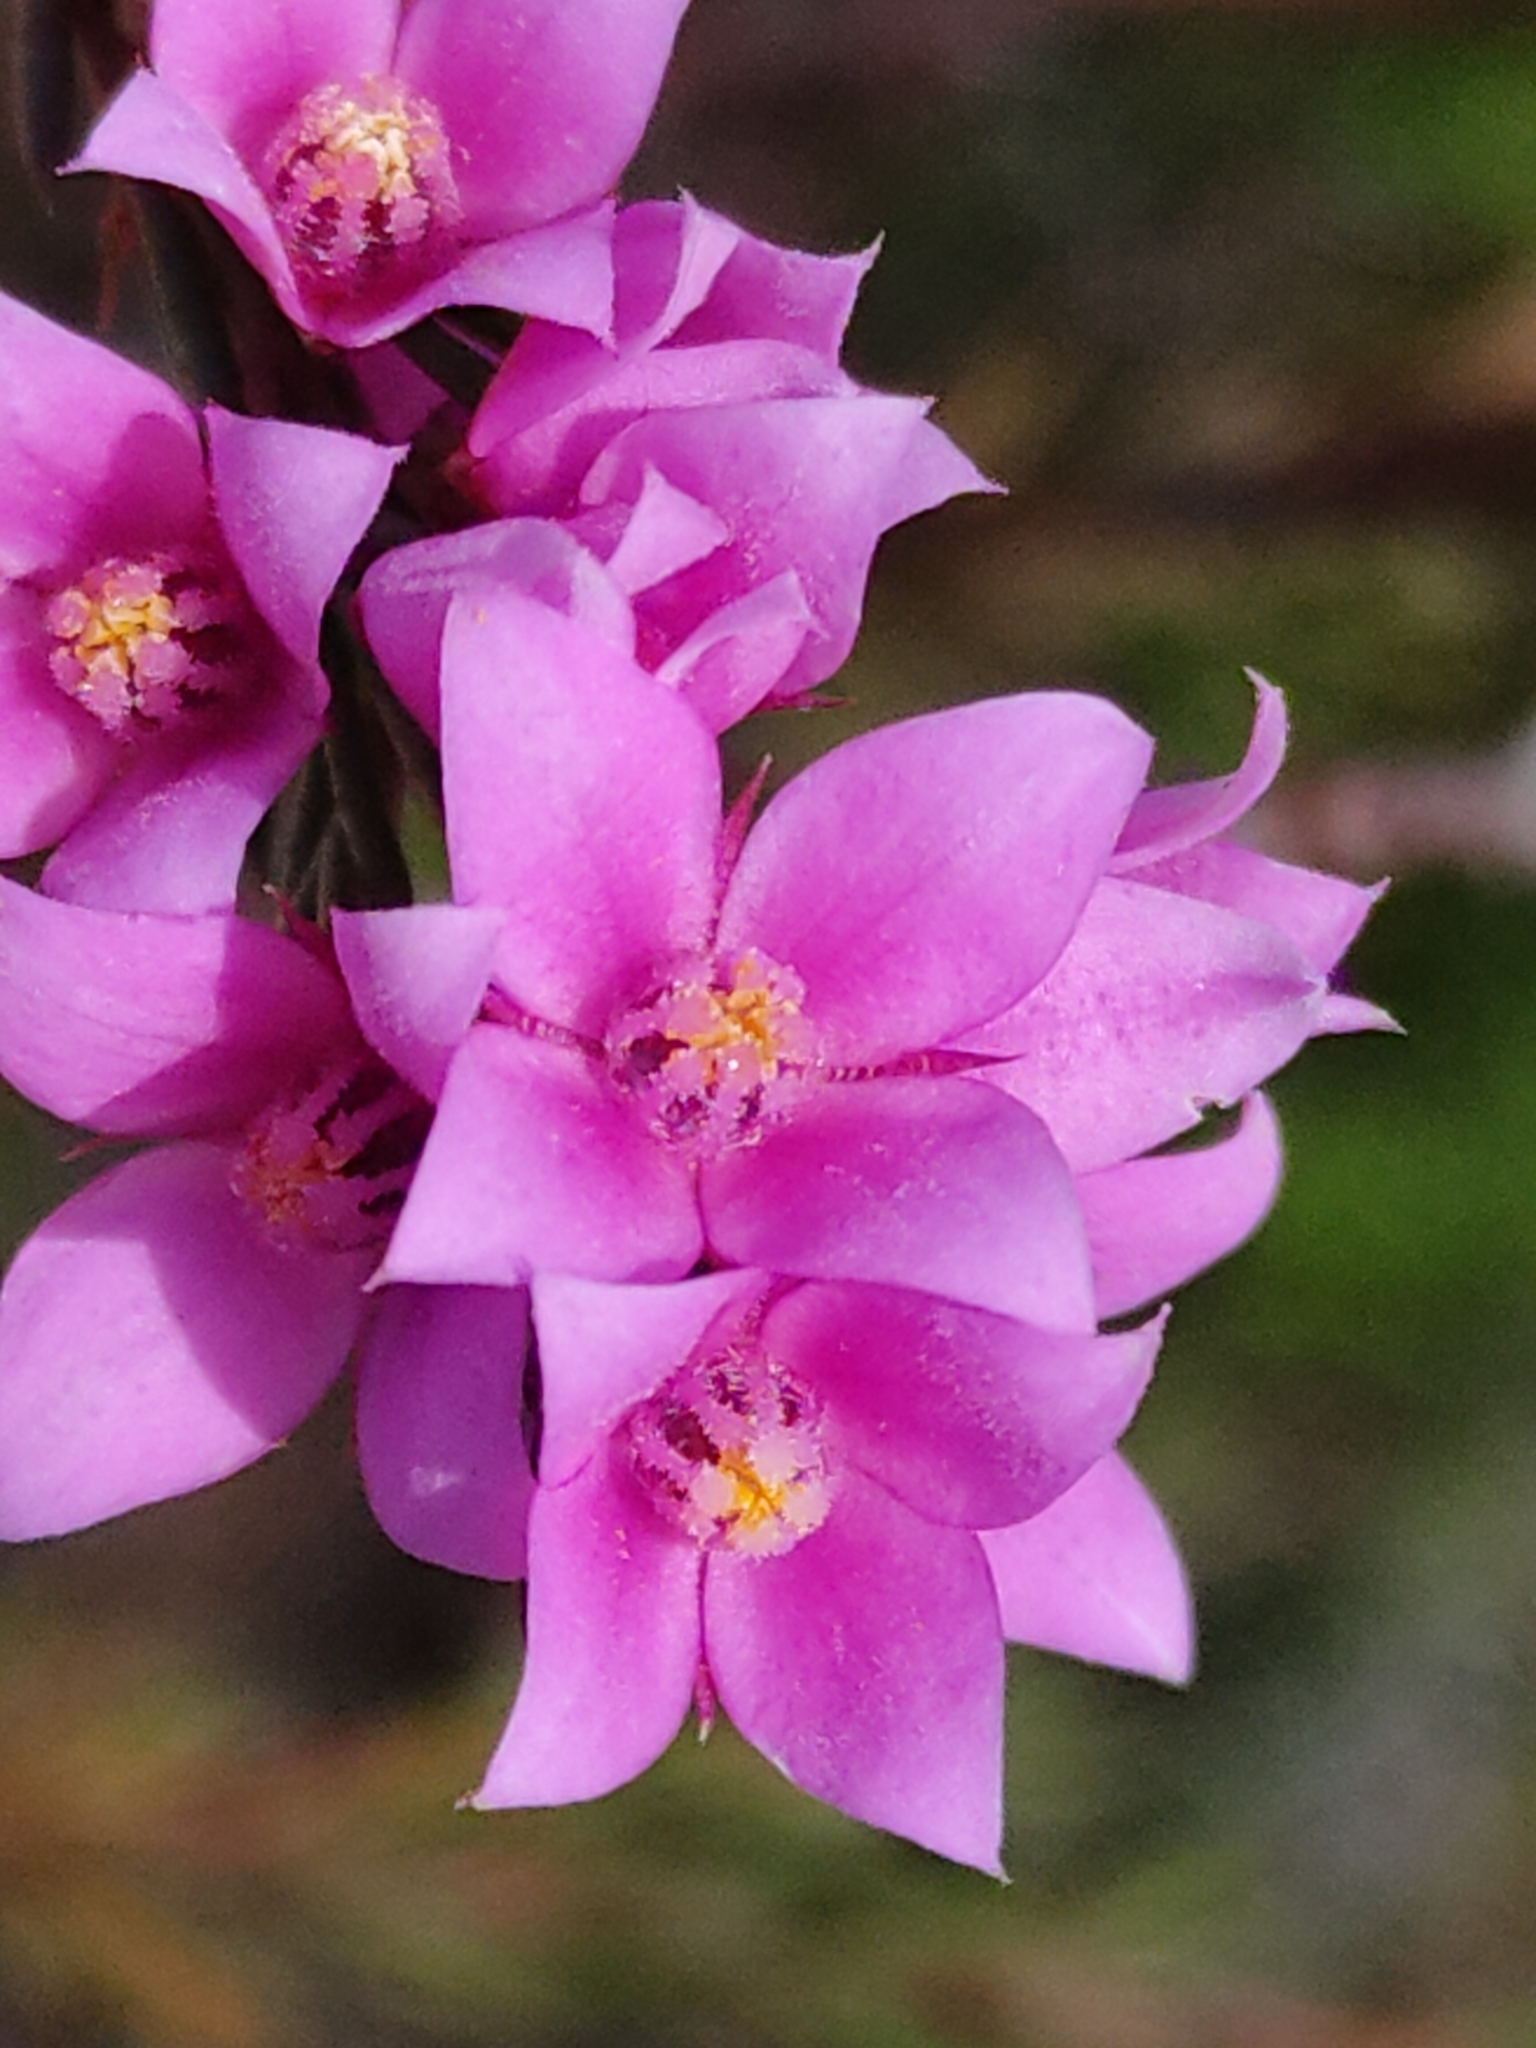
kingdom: Plantae
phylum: Tracheophyta
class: Magnoliopsida
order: Sapindales
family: Rutaceae
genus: Boronia
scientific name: Boronia falcifolia
